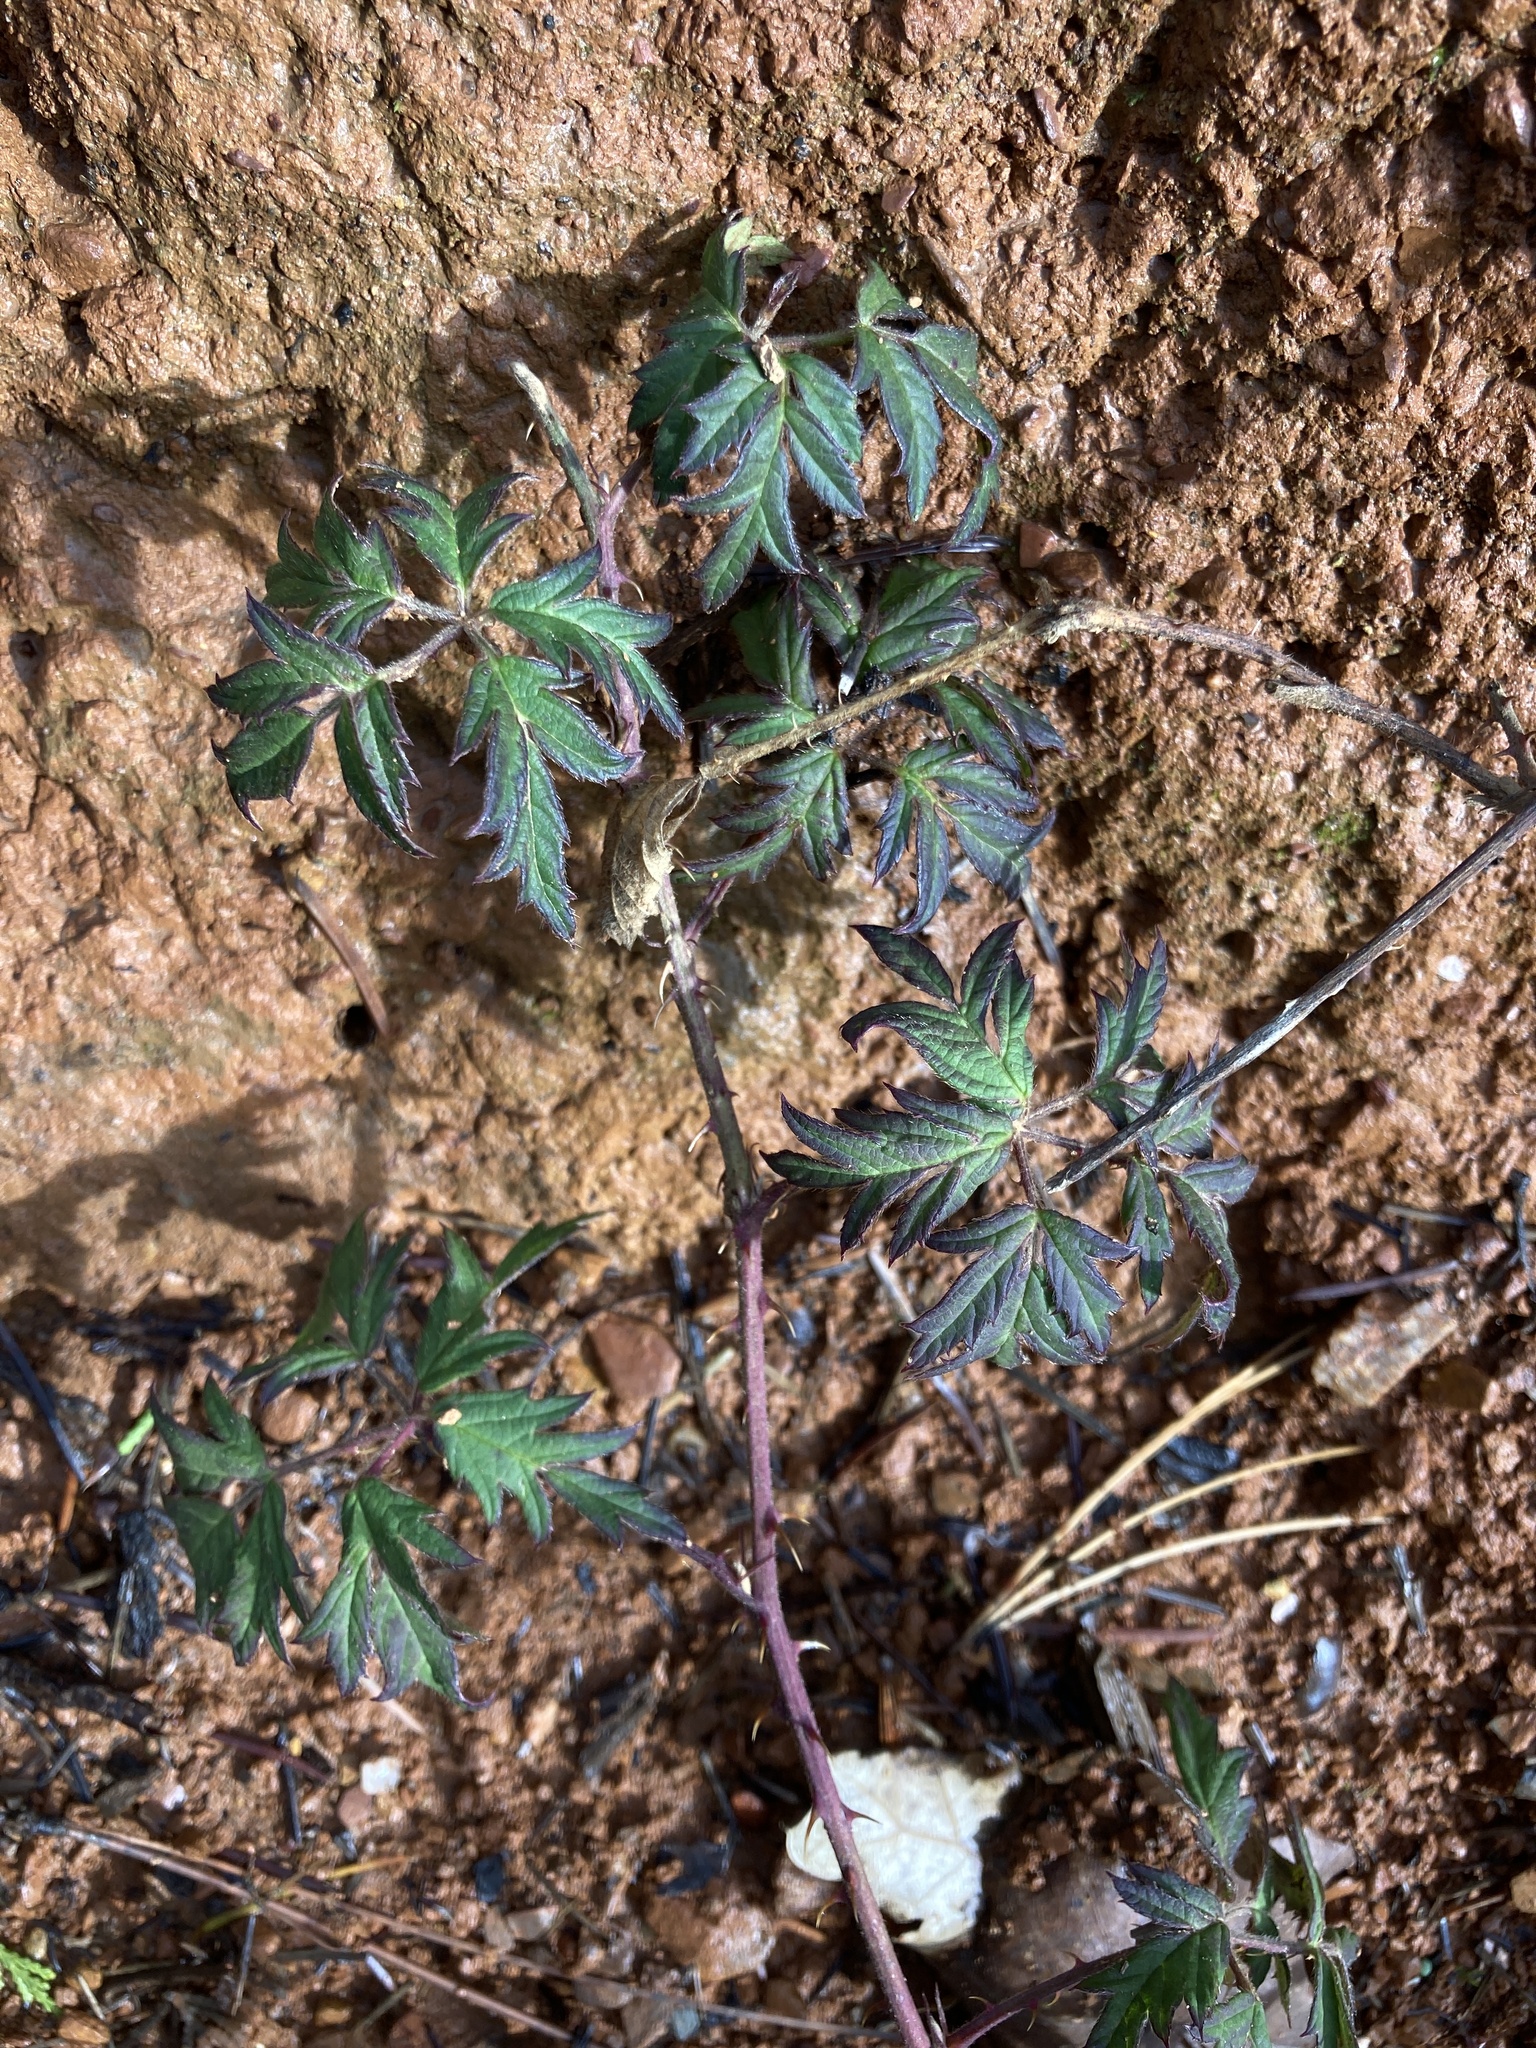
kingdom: Plantae
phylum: Tracheophyta
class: Magnoliopsida
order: Rosales
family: Rosaceae
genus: Rubus
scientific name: Rubus laciniatus
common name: Evergreen blackberry
